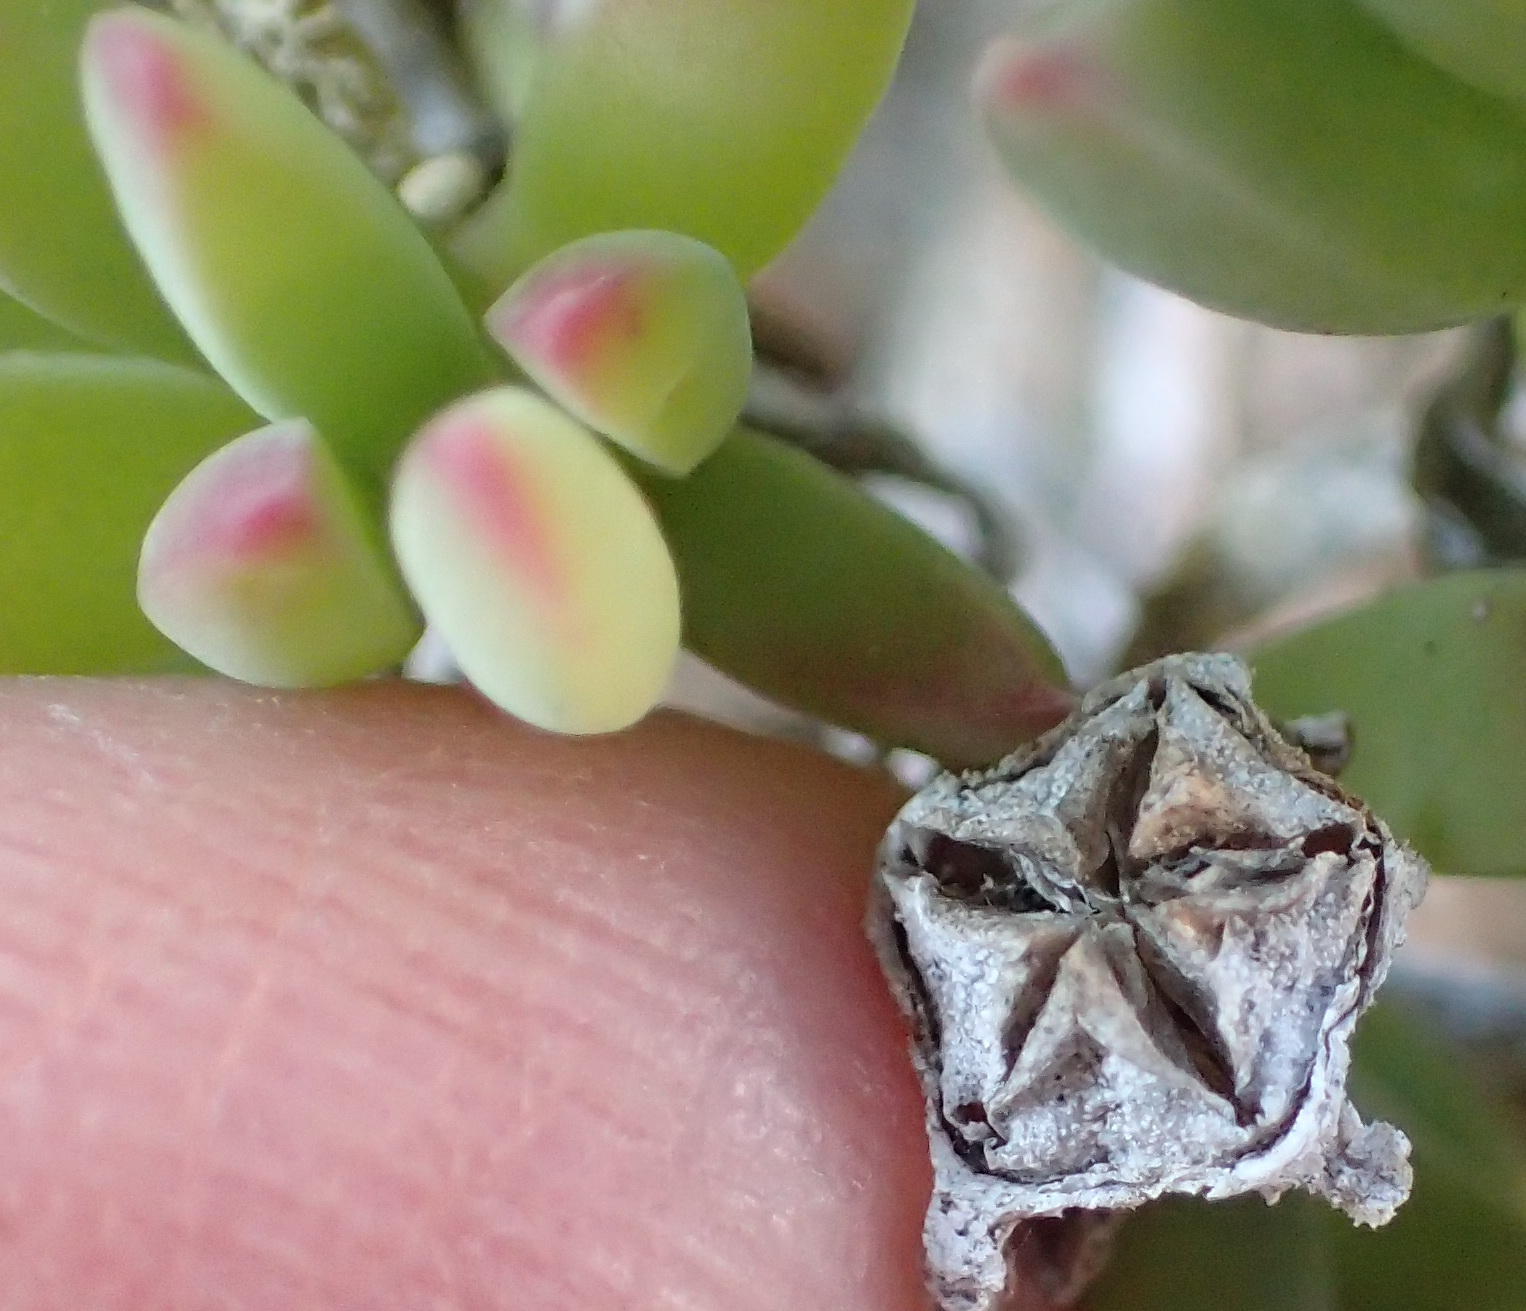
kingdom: Plantae
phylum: Tracheophyta
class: Magnoliopsida
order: Caryophyllales
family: Aizoaceae
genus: Delosperma
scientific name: Delosperma patersoniae
